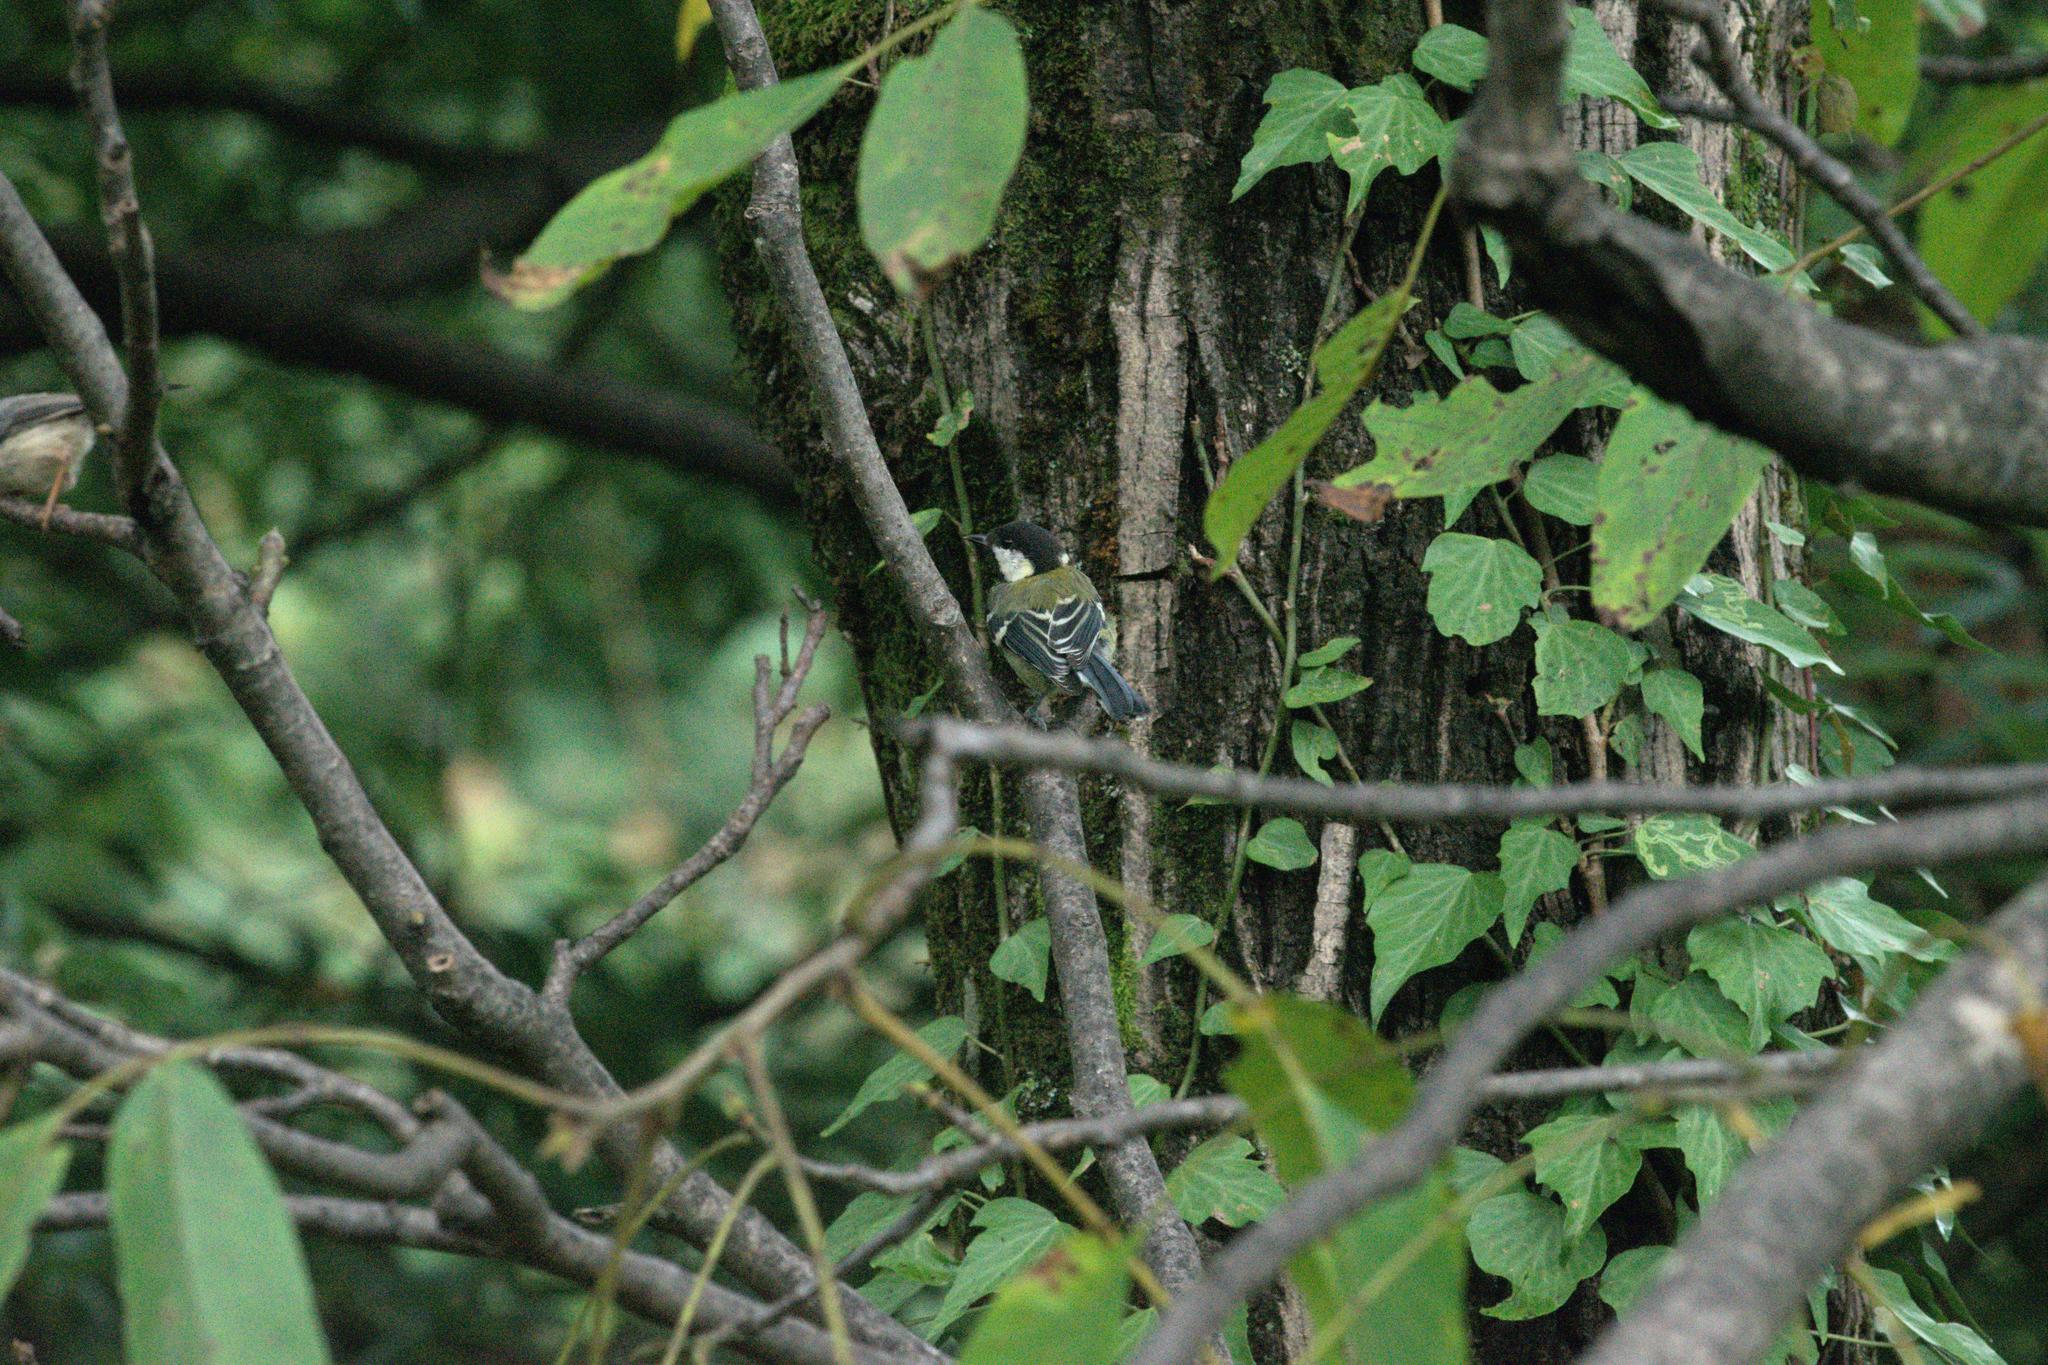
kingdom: Animalia
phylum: Chordata
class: Aves
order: Passeriformes
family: Paridae
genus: Parus
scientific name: Parus monticolus
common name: Green-backed tit
